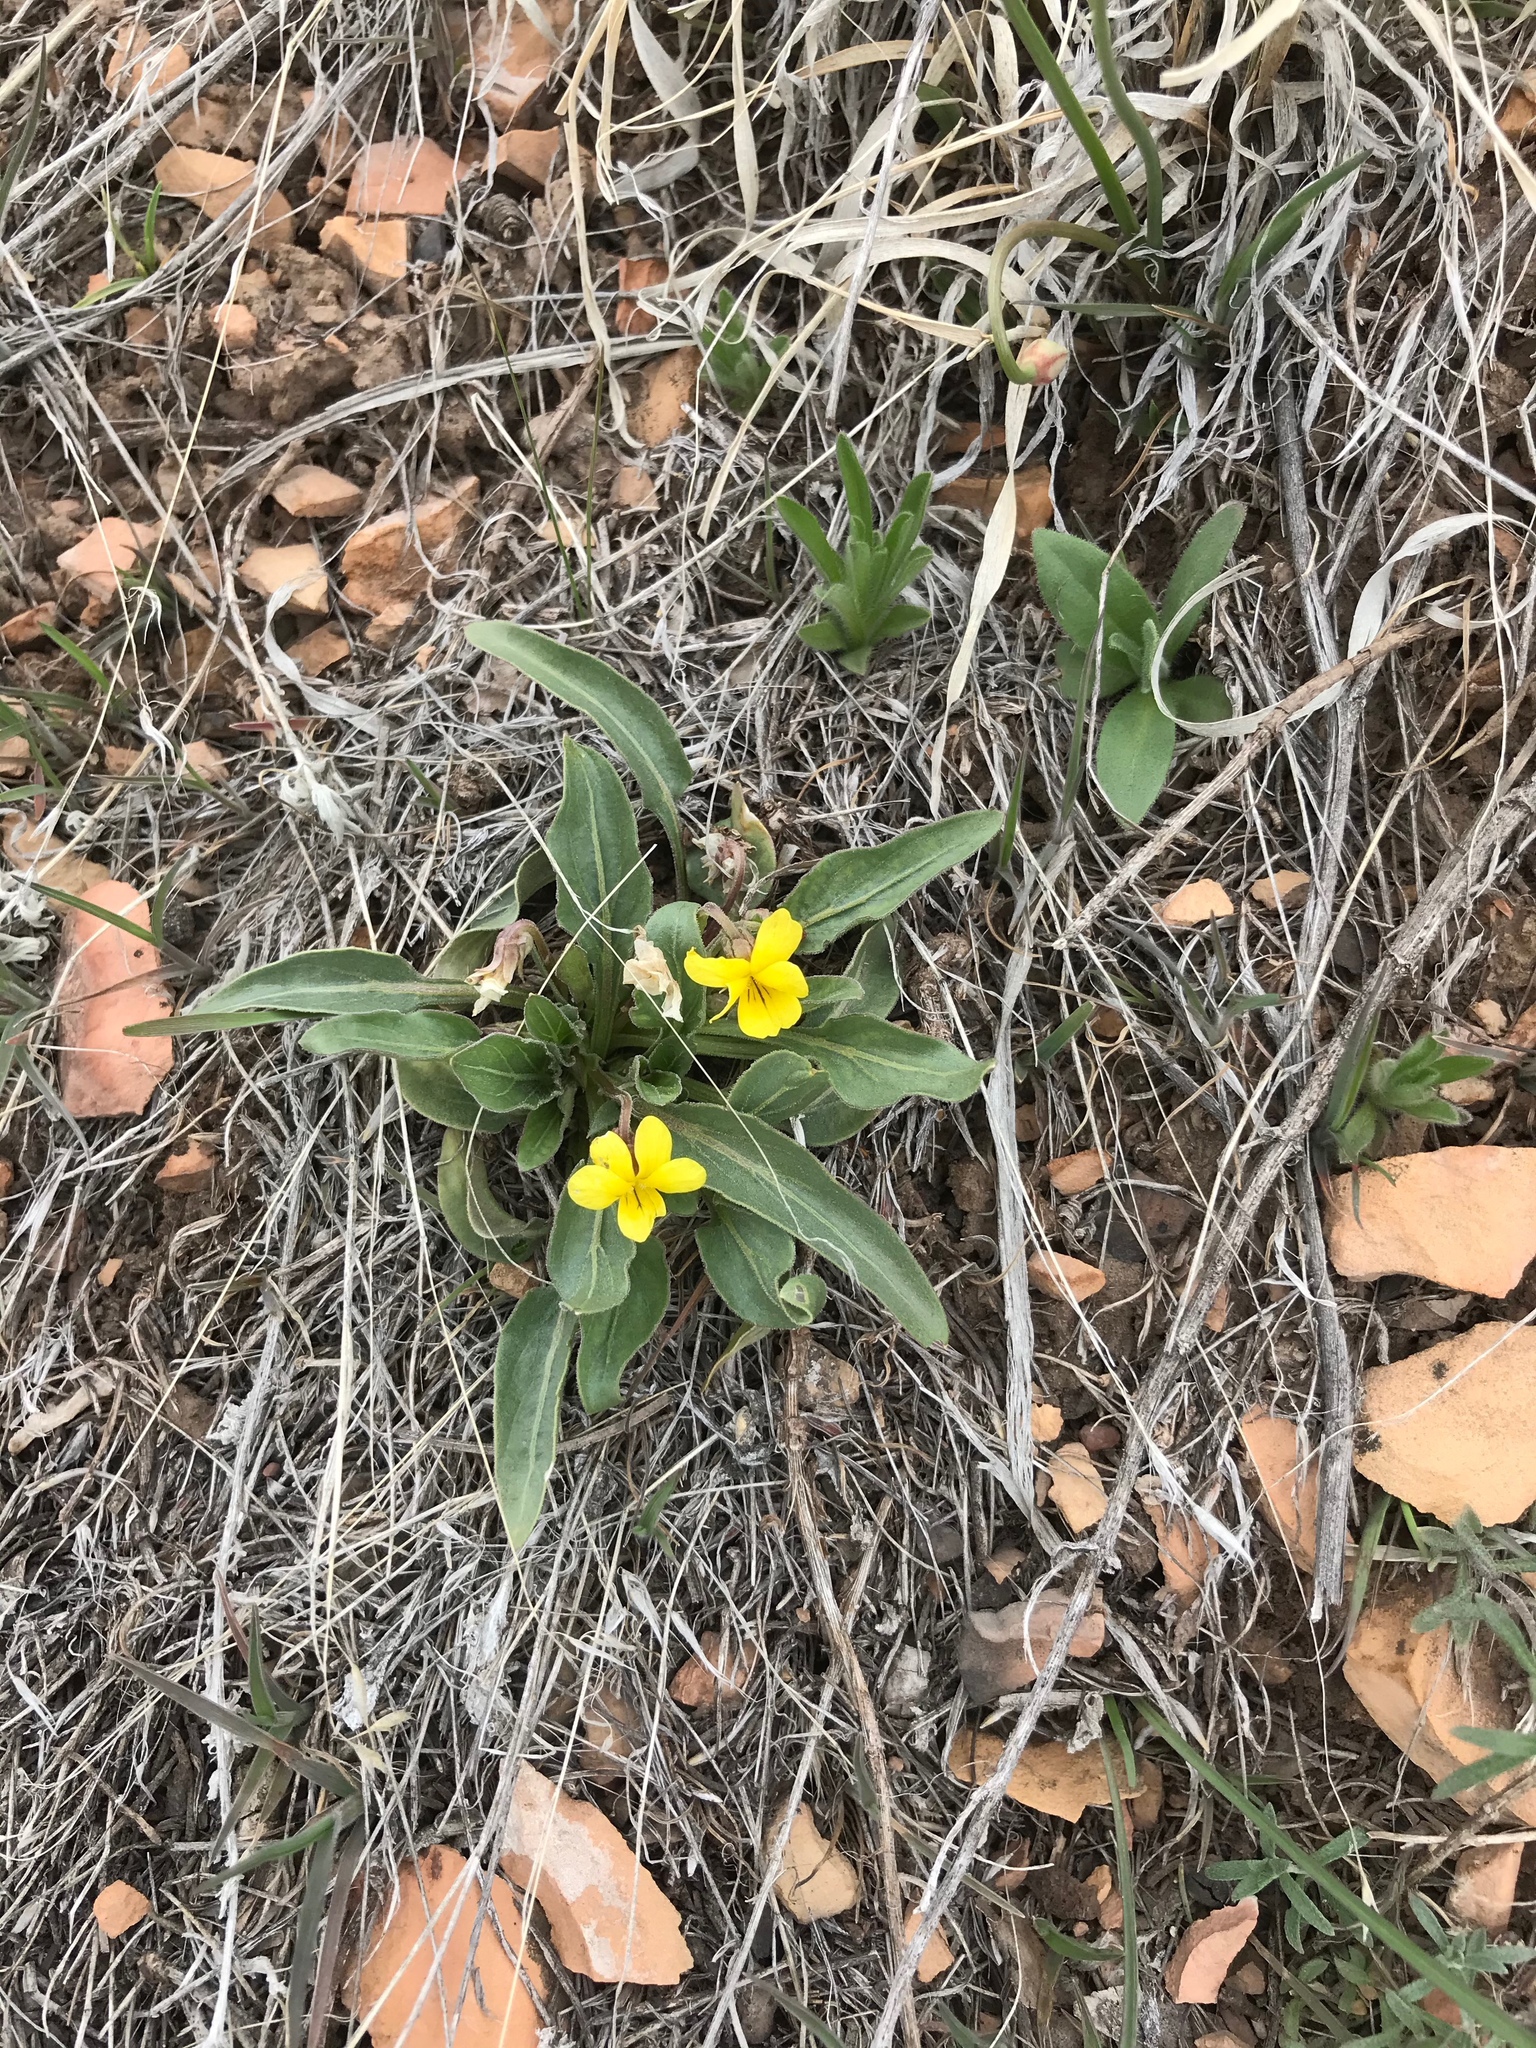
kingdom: Plantae
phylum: Tracheophyta
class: Magnoliopsida
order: Malpighiales
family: Violaceae
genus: Viola
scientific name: Viola nuttallii
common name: Yellow prairie violet
